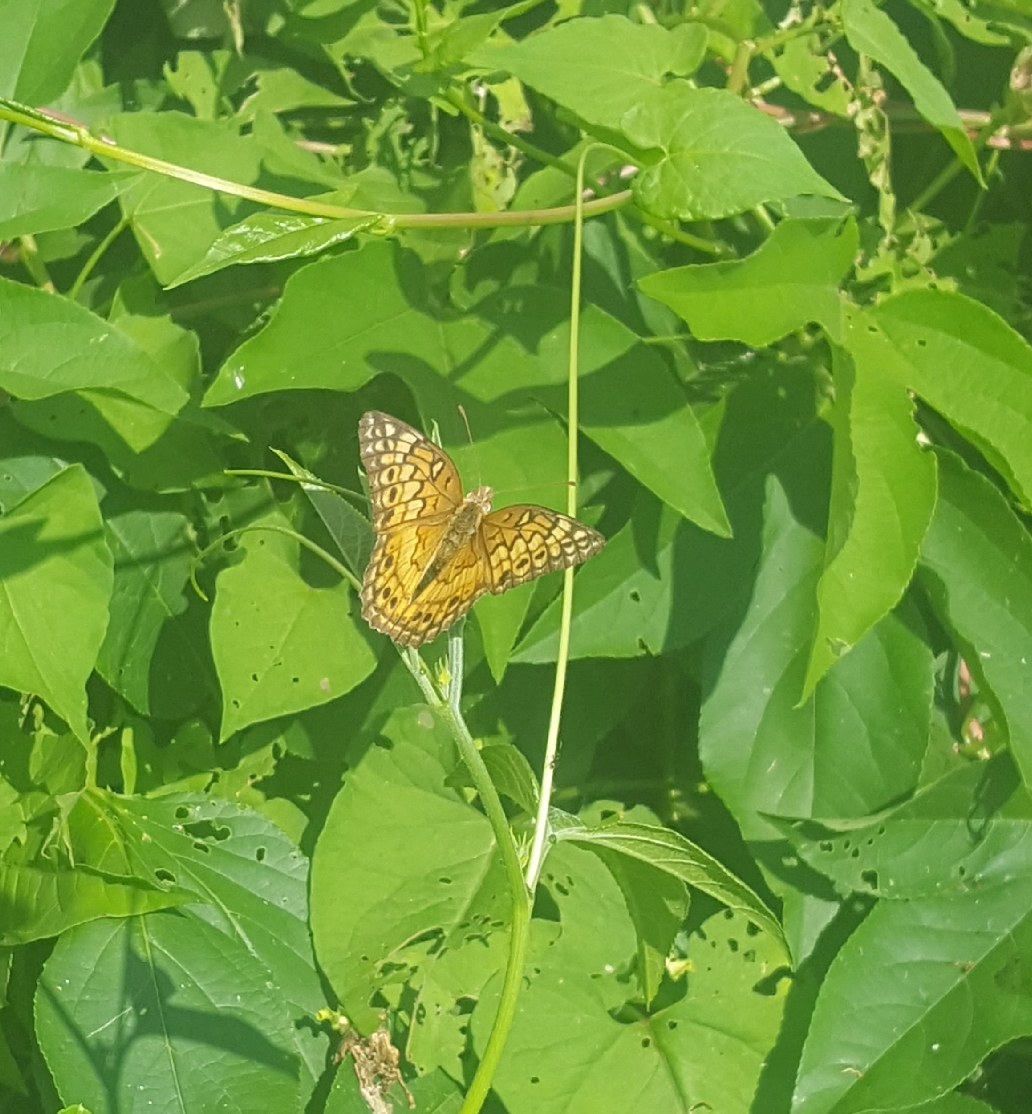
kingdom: Animalia
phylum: Arthropoda
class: Insecta
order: Lepidoptera
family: Nymphalidae
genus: Euptoieta
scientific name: Euptoieta claudia
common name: Variegated fritillary
